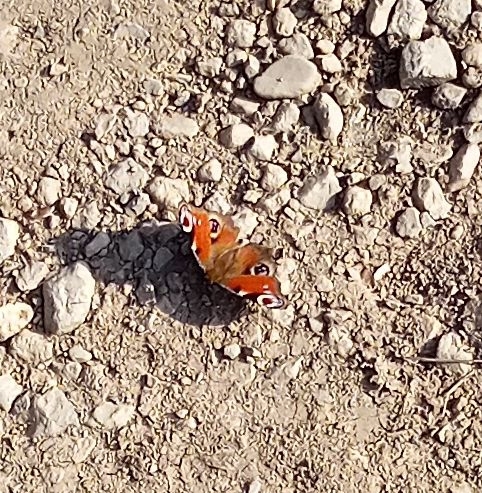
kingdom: Animalia
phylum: Arthropoda
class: Insecta
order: Lepidoptera
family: Nymphalidae
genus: Aglais
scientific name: Aglais io
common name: Peacock
